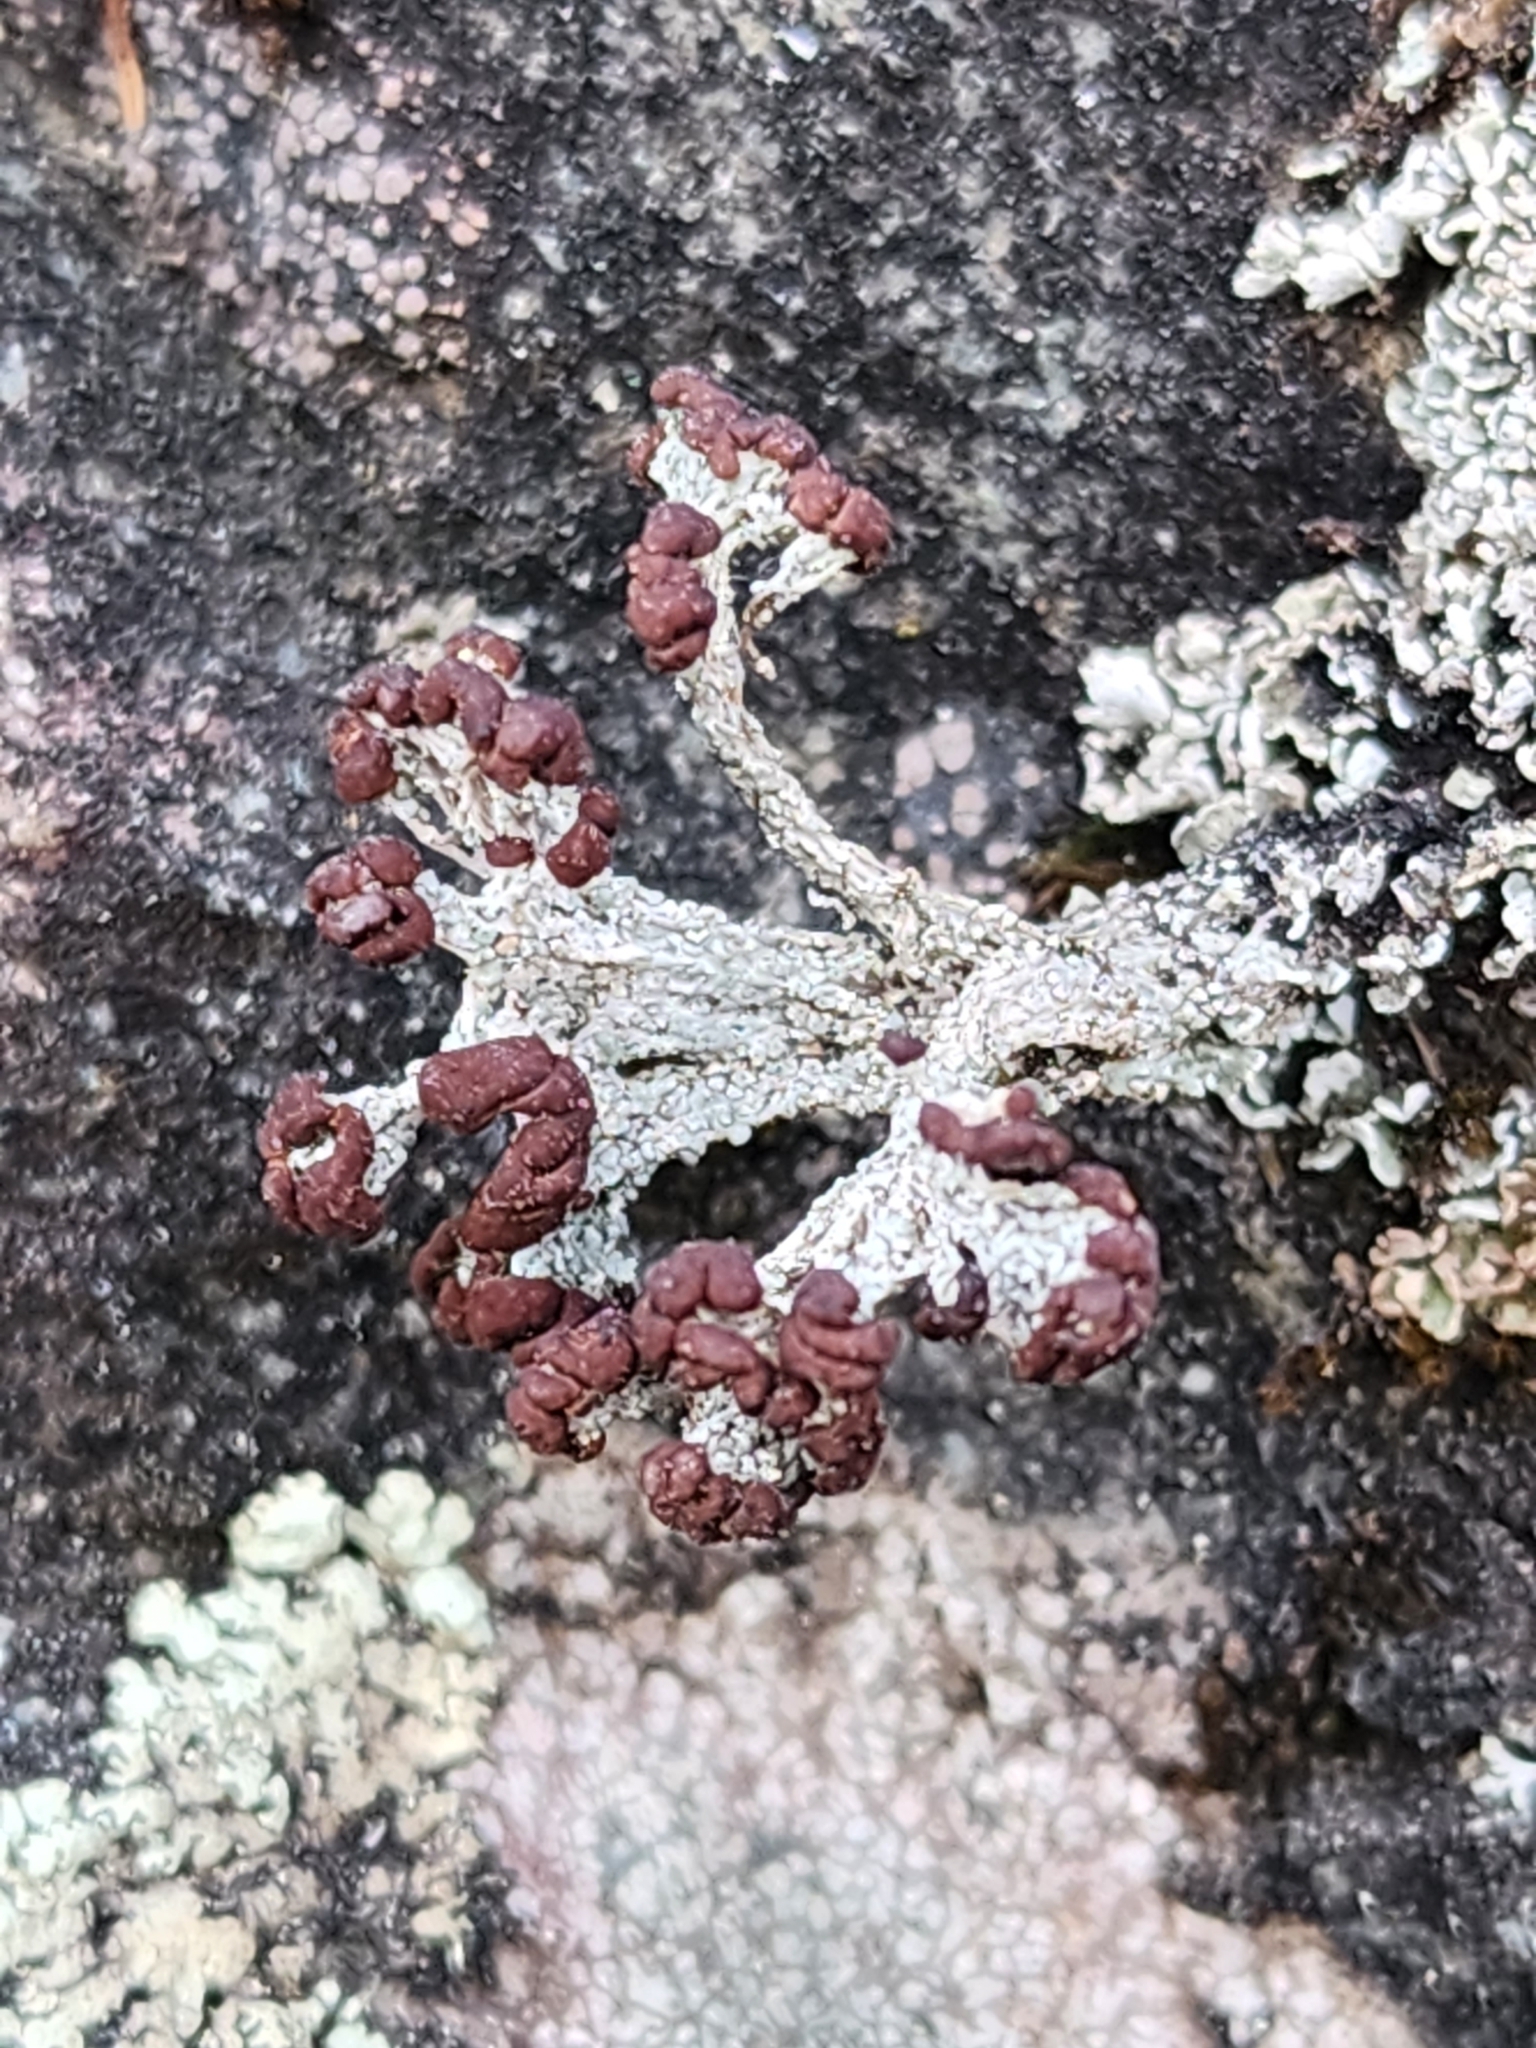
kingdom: Fungi
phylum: Ascomycota
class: Lecanoromycetes
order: Lecanorales
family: Cladoniaceae
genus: Cladonia
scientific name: Cladonia cariosa
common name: Split-peg lichen
